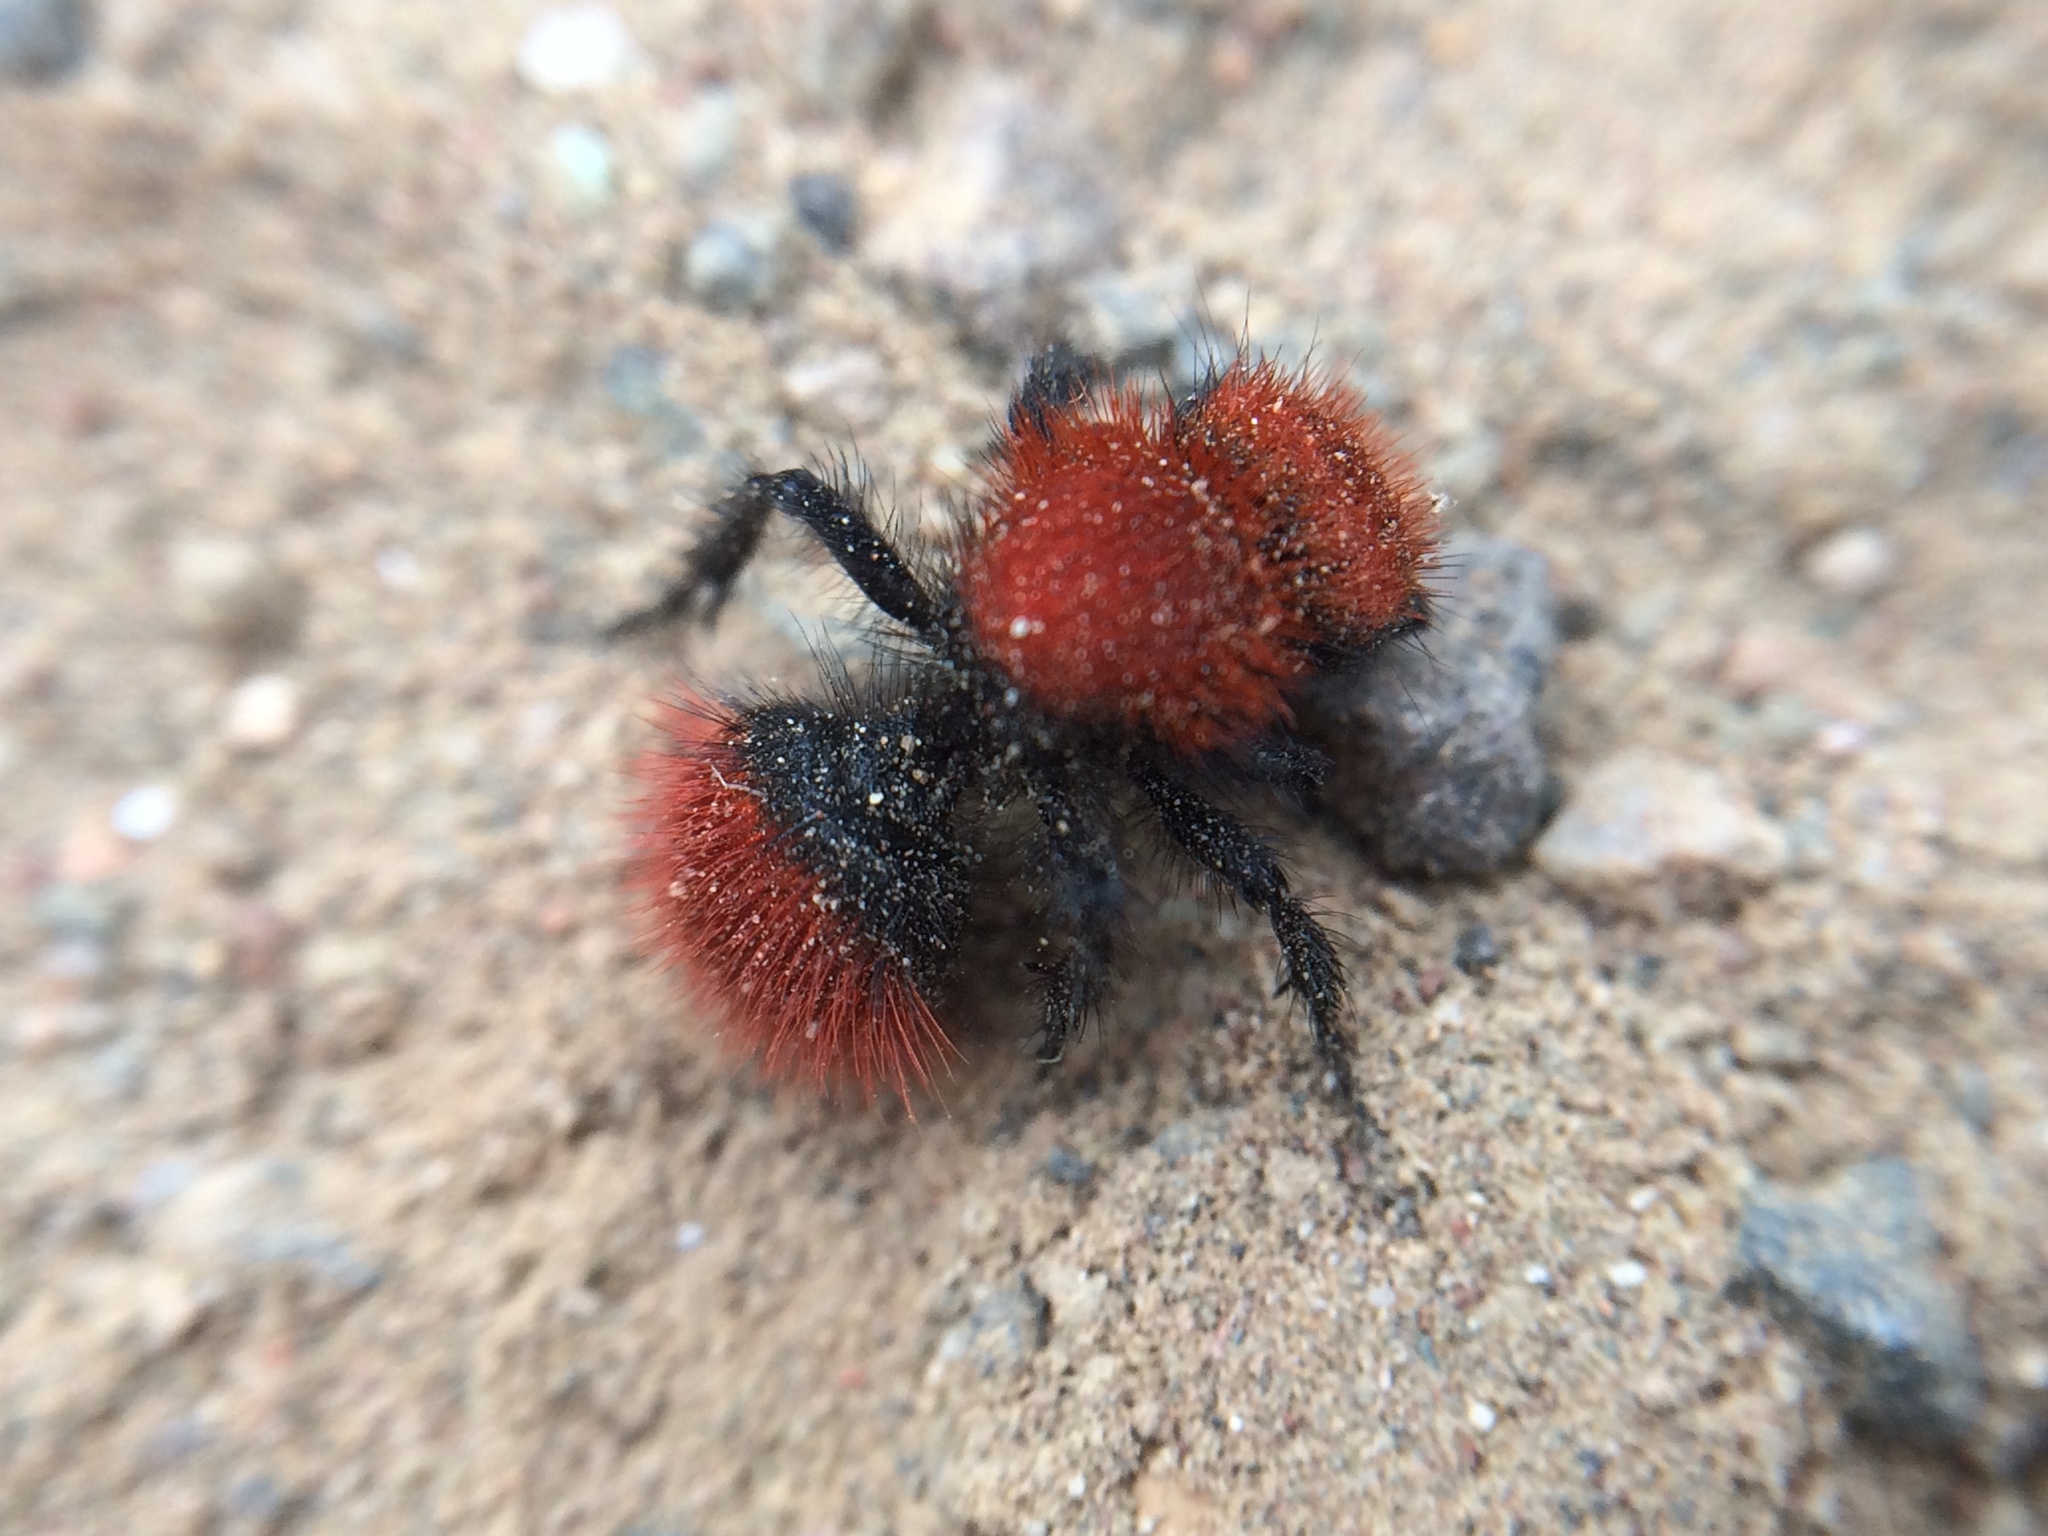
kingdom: Animalia
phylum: Arthropoda
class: Insecta
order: Hymenoptera
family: Mutillidae
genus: Dasymutilla
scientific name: Dasymutilla
